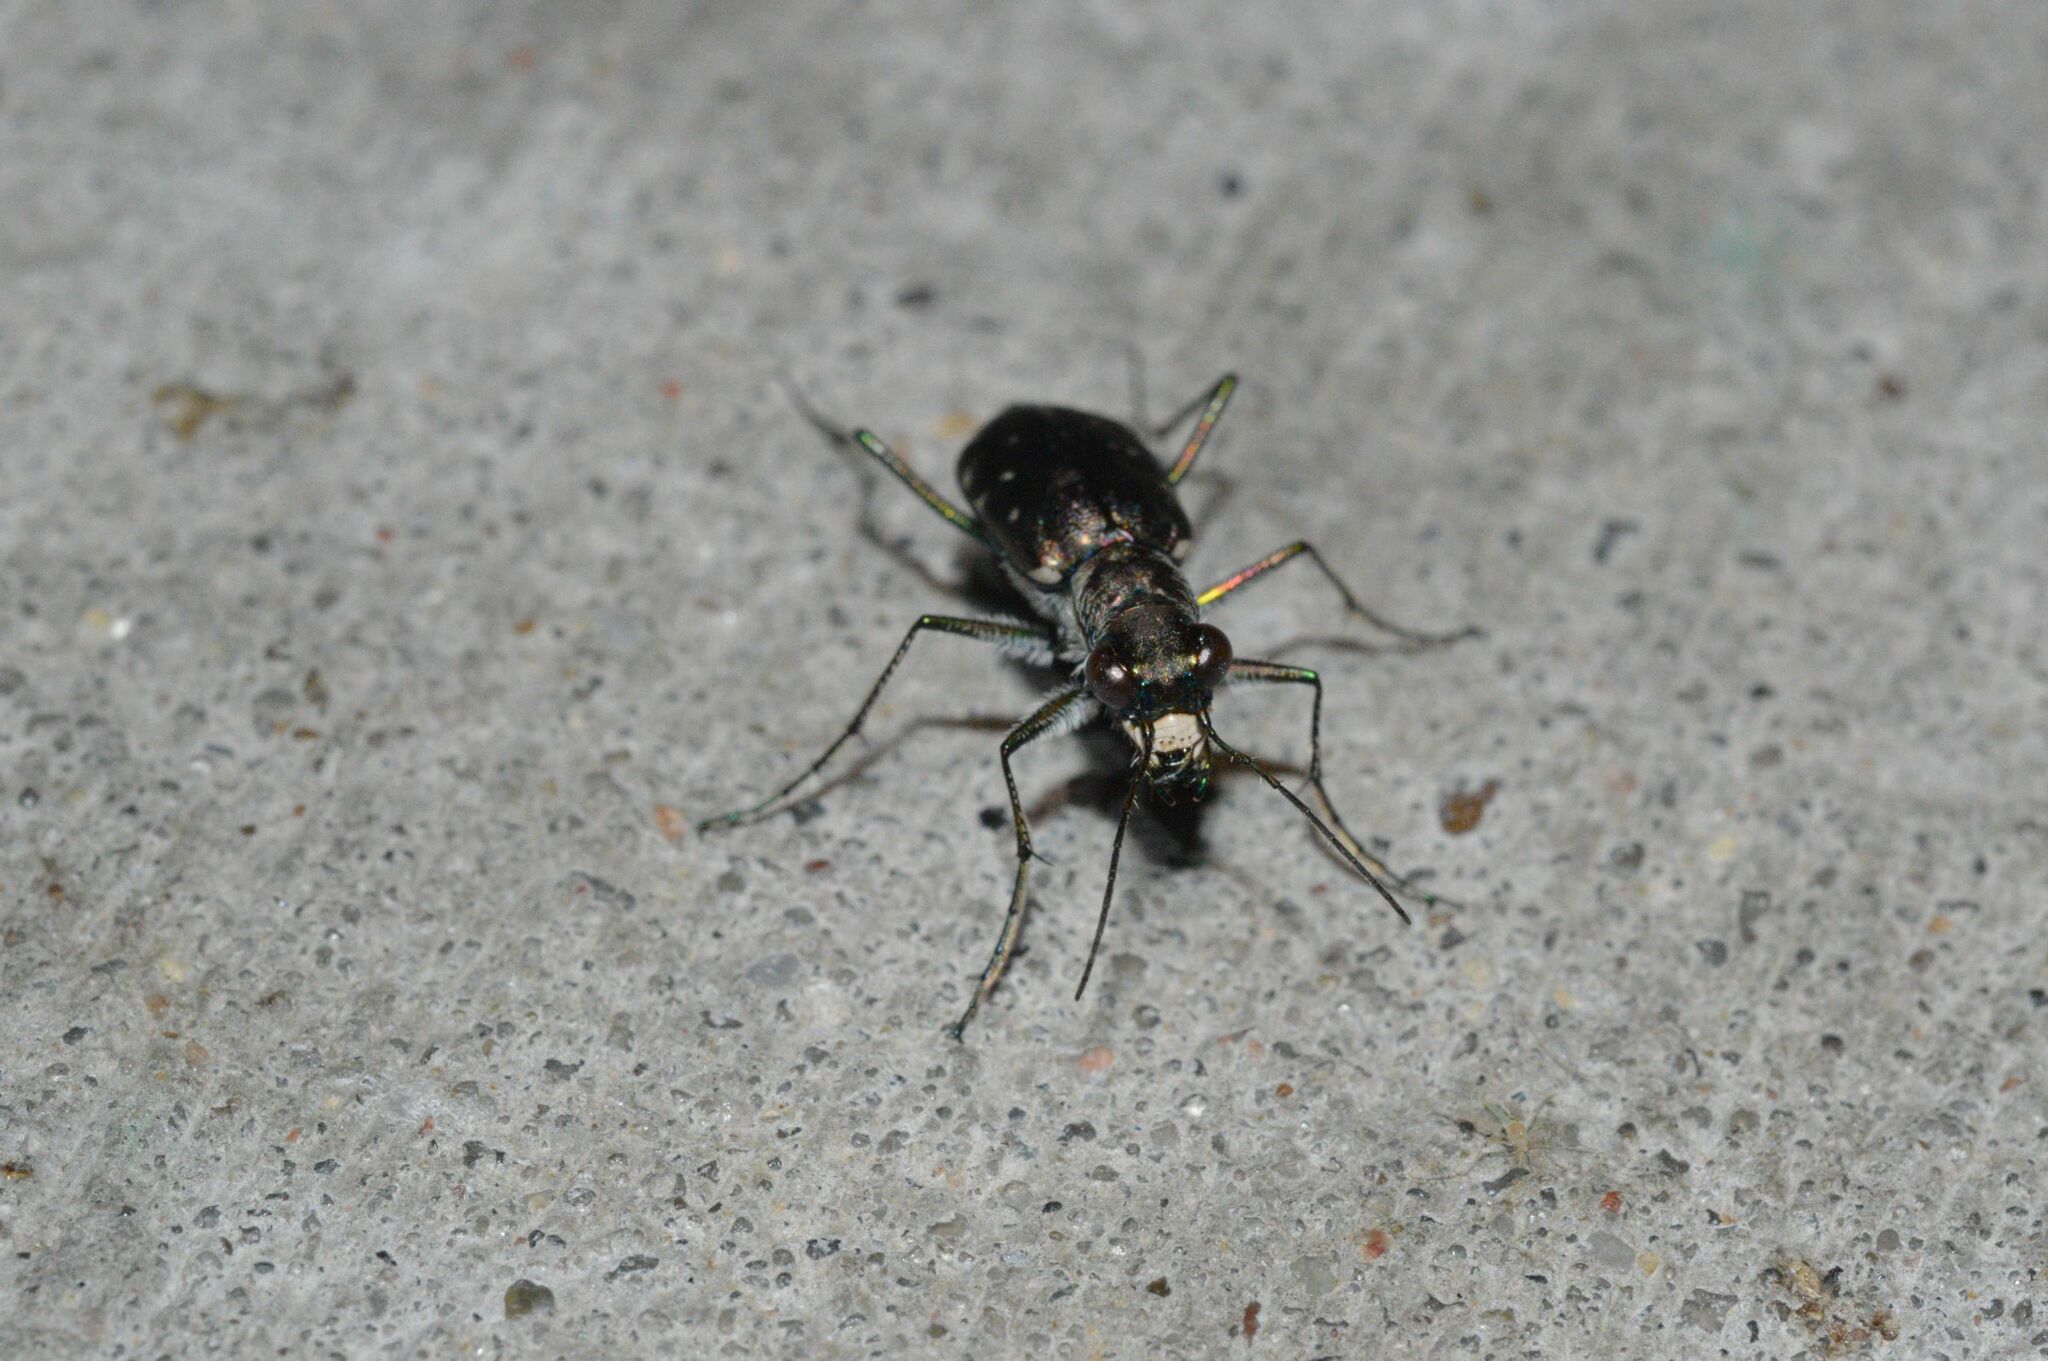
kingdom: Animalia
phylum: Arthropoda
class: Insecta
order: Coleoptera
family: Carabidae
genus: Cicindela
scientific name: Cicindela punctulata
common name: Punctured tiger beetle
